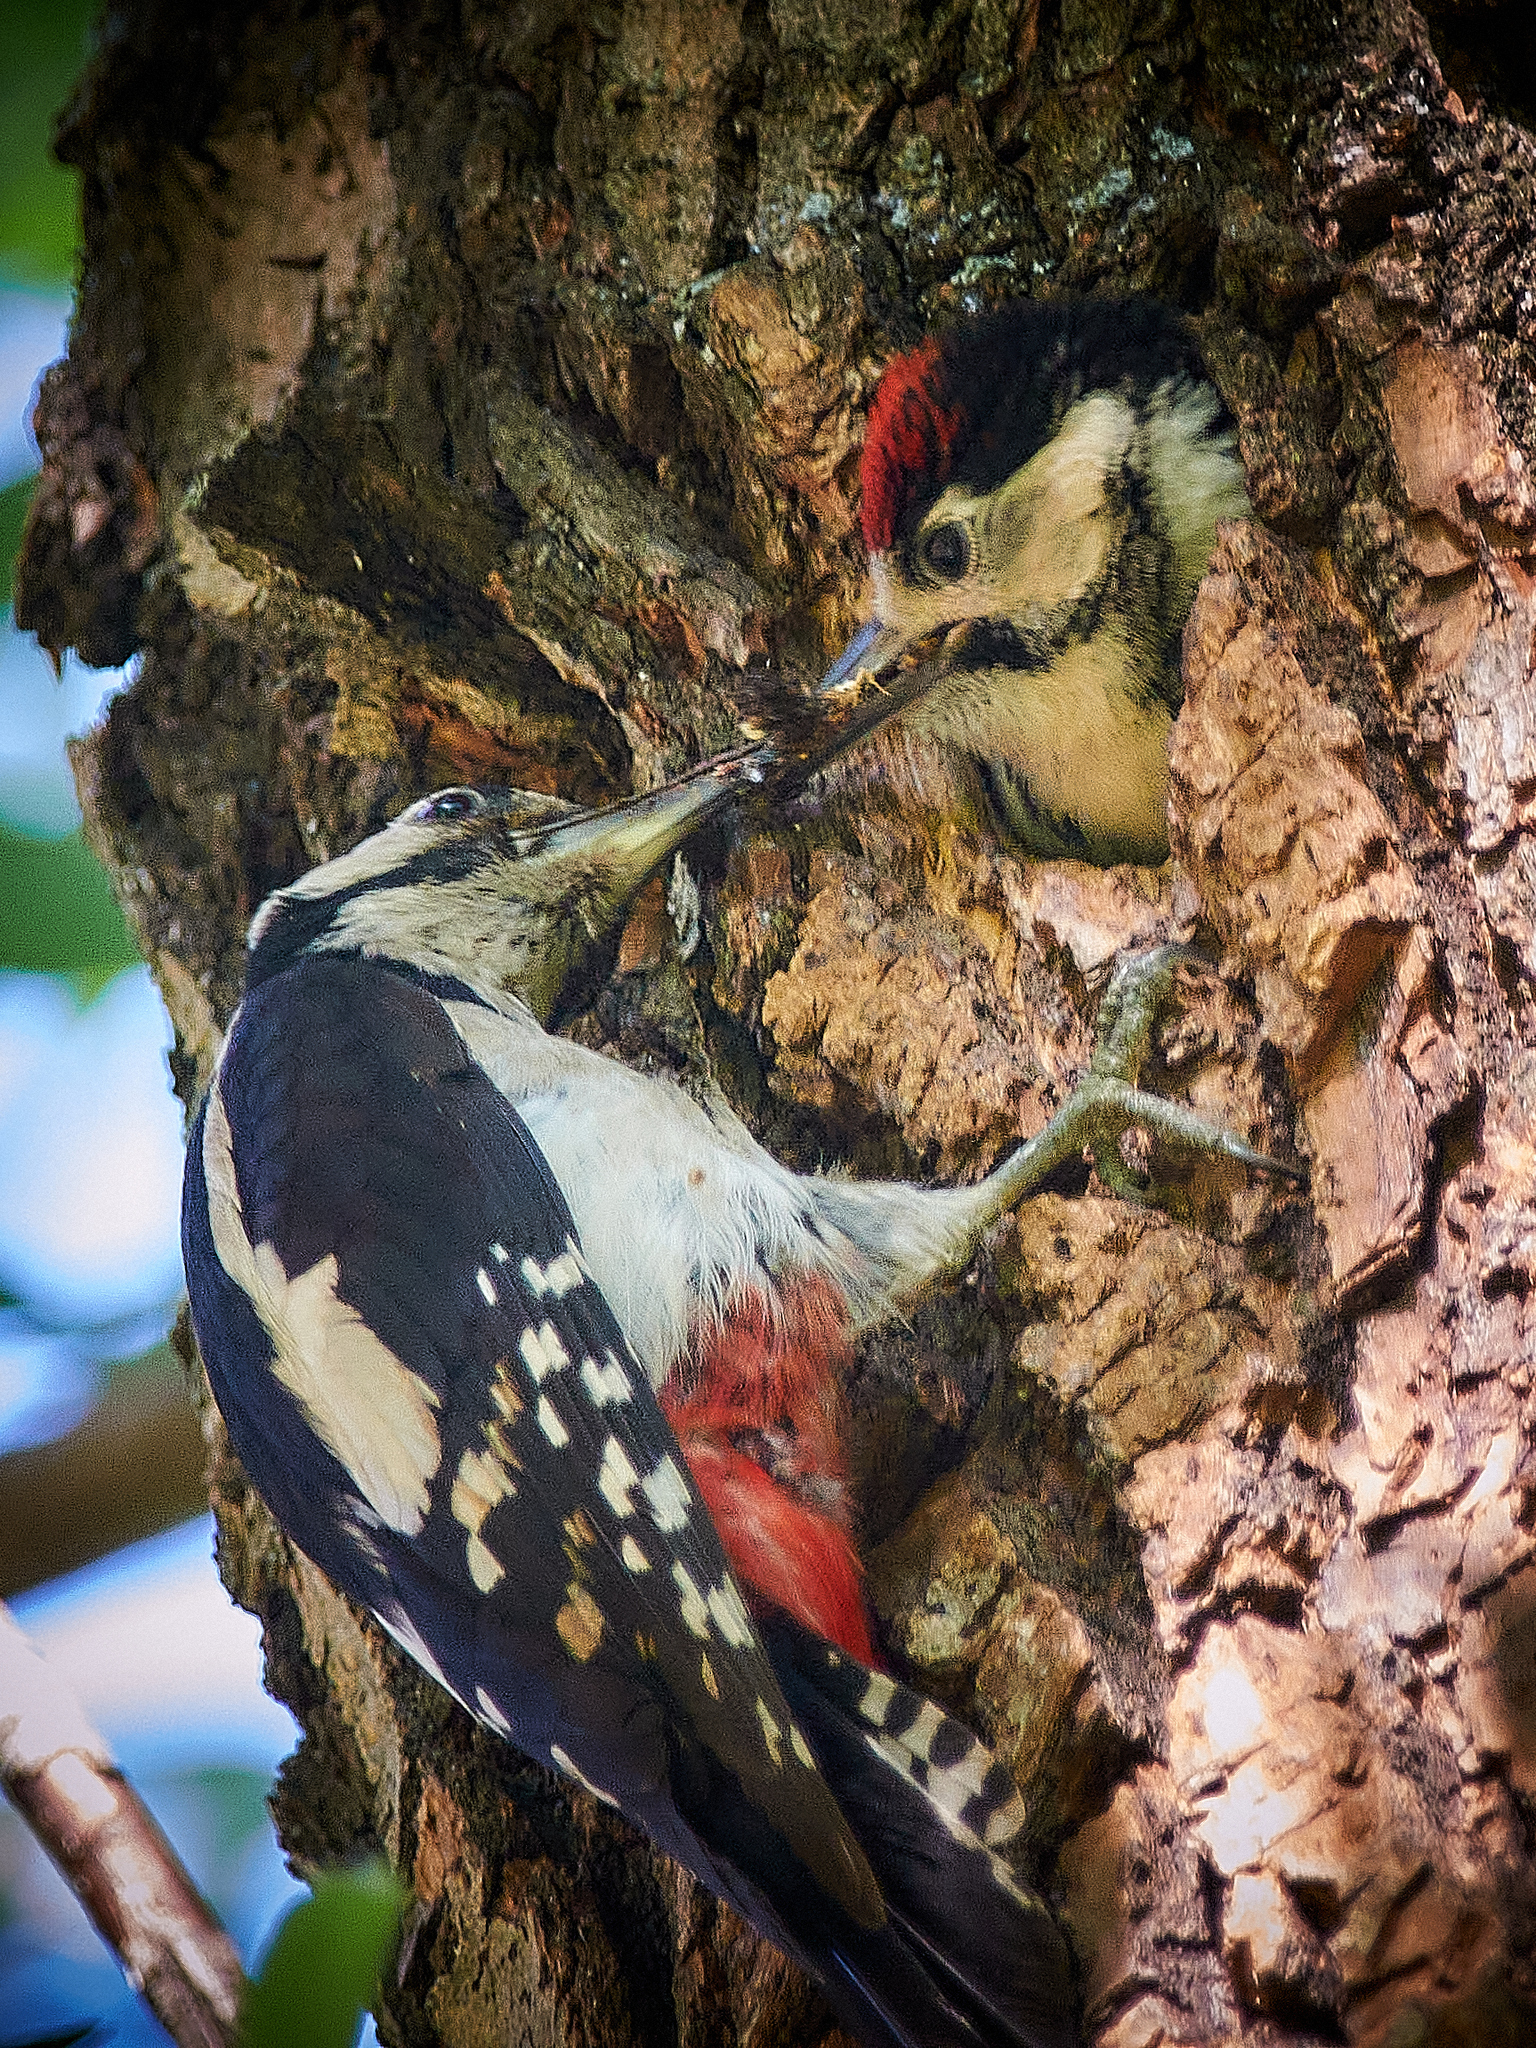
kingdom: Animalia
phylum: Chordata
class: Aves
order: Piciformes
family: Picidae
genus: Dendrocopos
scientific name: Dendrocopos major
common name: Great spotted woodpecker
